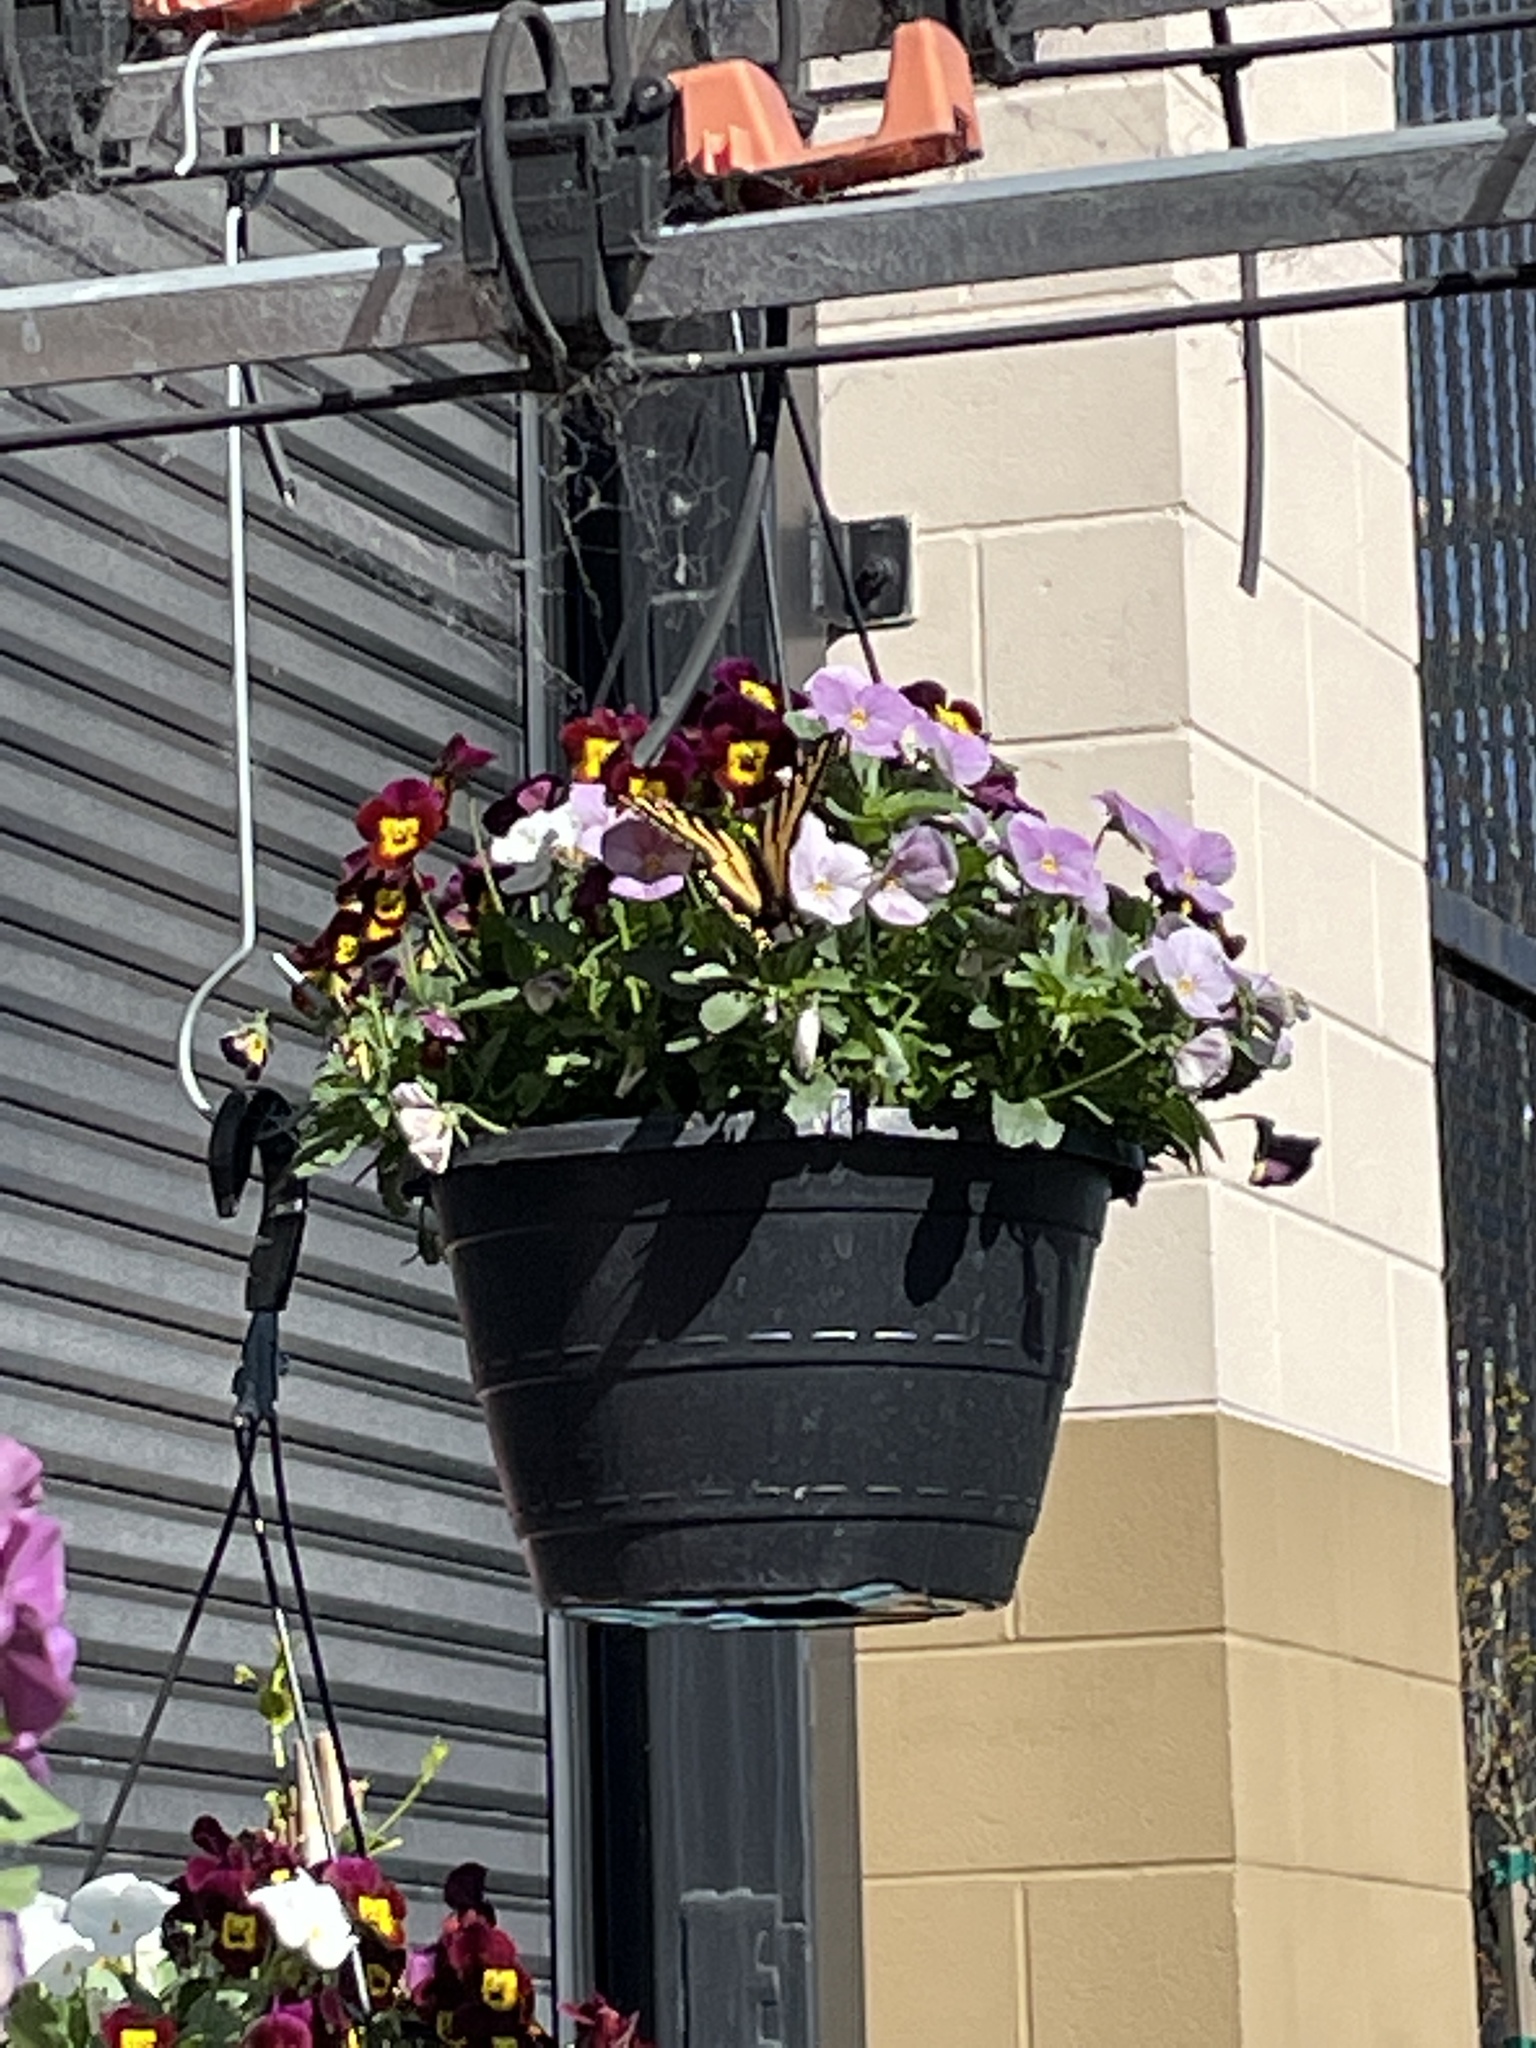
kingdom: Animalia
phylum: Arthropoda
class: Insecta
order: Lepidoptera
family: Papilionidae
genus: Papilio
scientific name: Papilio rutulus
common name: Western tiger swallowtail
